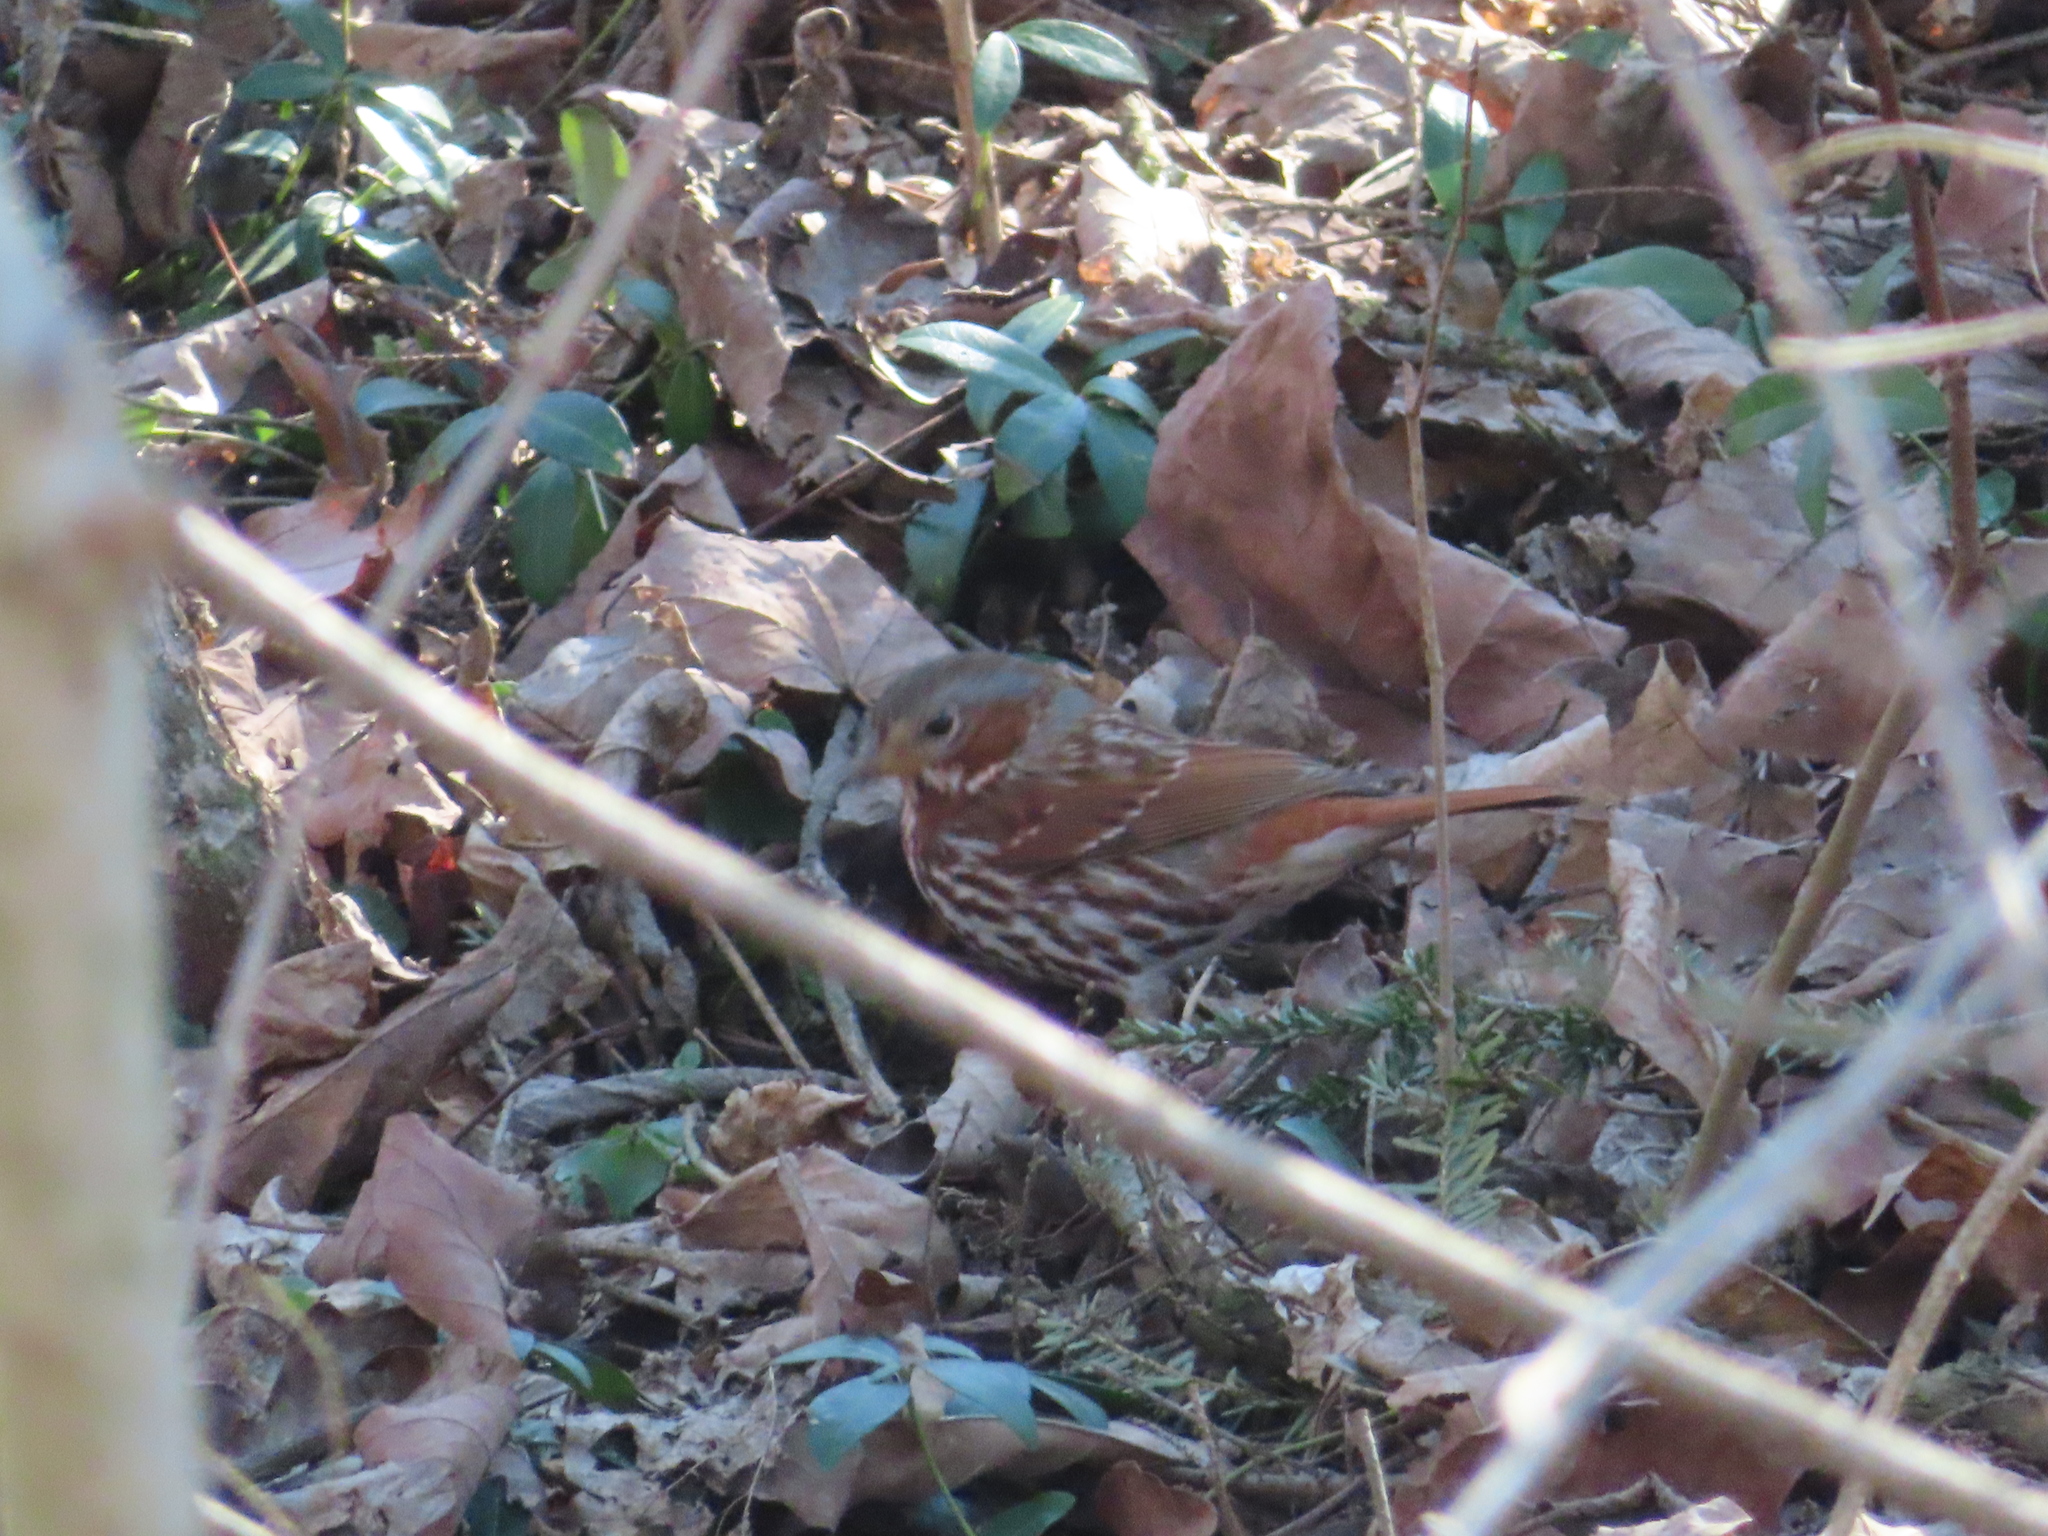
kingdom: Animalia
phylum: Chordata
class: Aves
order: Passeriformes
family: Passerellidae
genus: Passerella
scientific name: Passerella iliaca
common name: Fox sparrow
